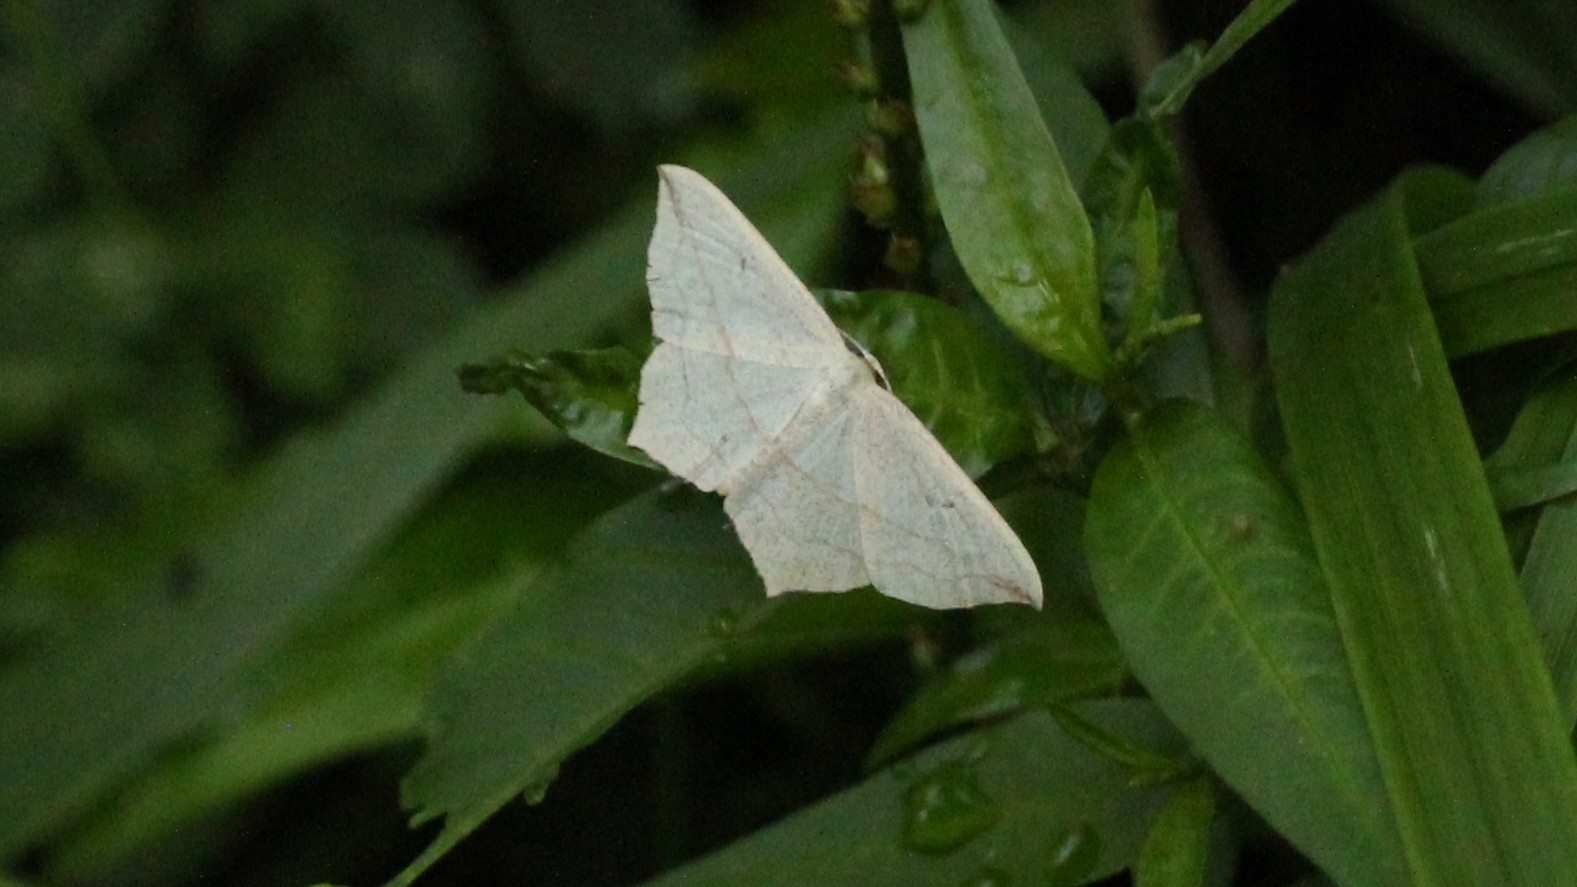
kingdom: Animalia
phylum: Arthropoda
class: Insecta
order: Lepidoptera
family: Geometridae
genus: Timandra
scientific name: Timandra comae
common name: Blood-vein
